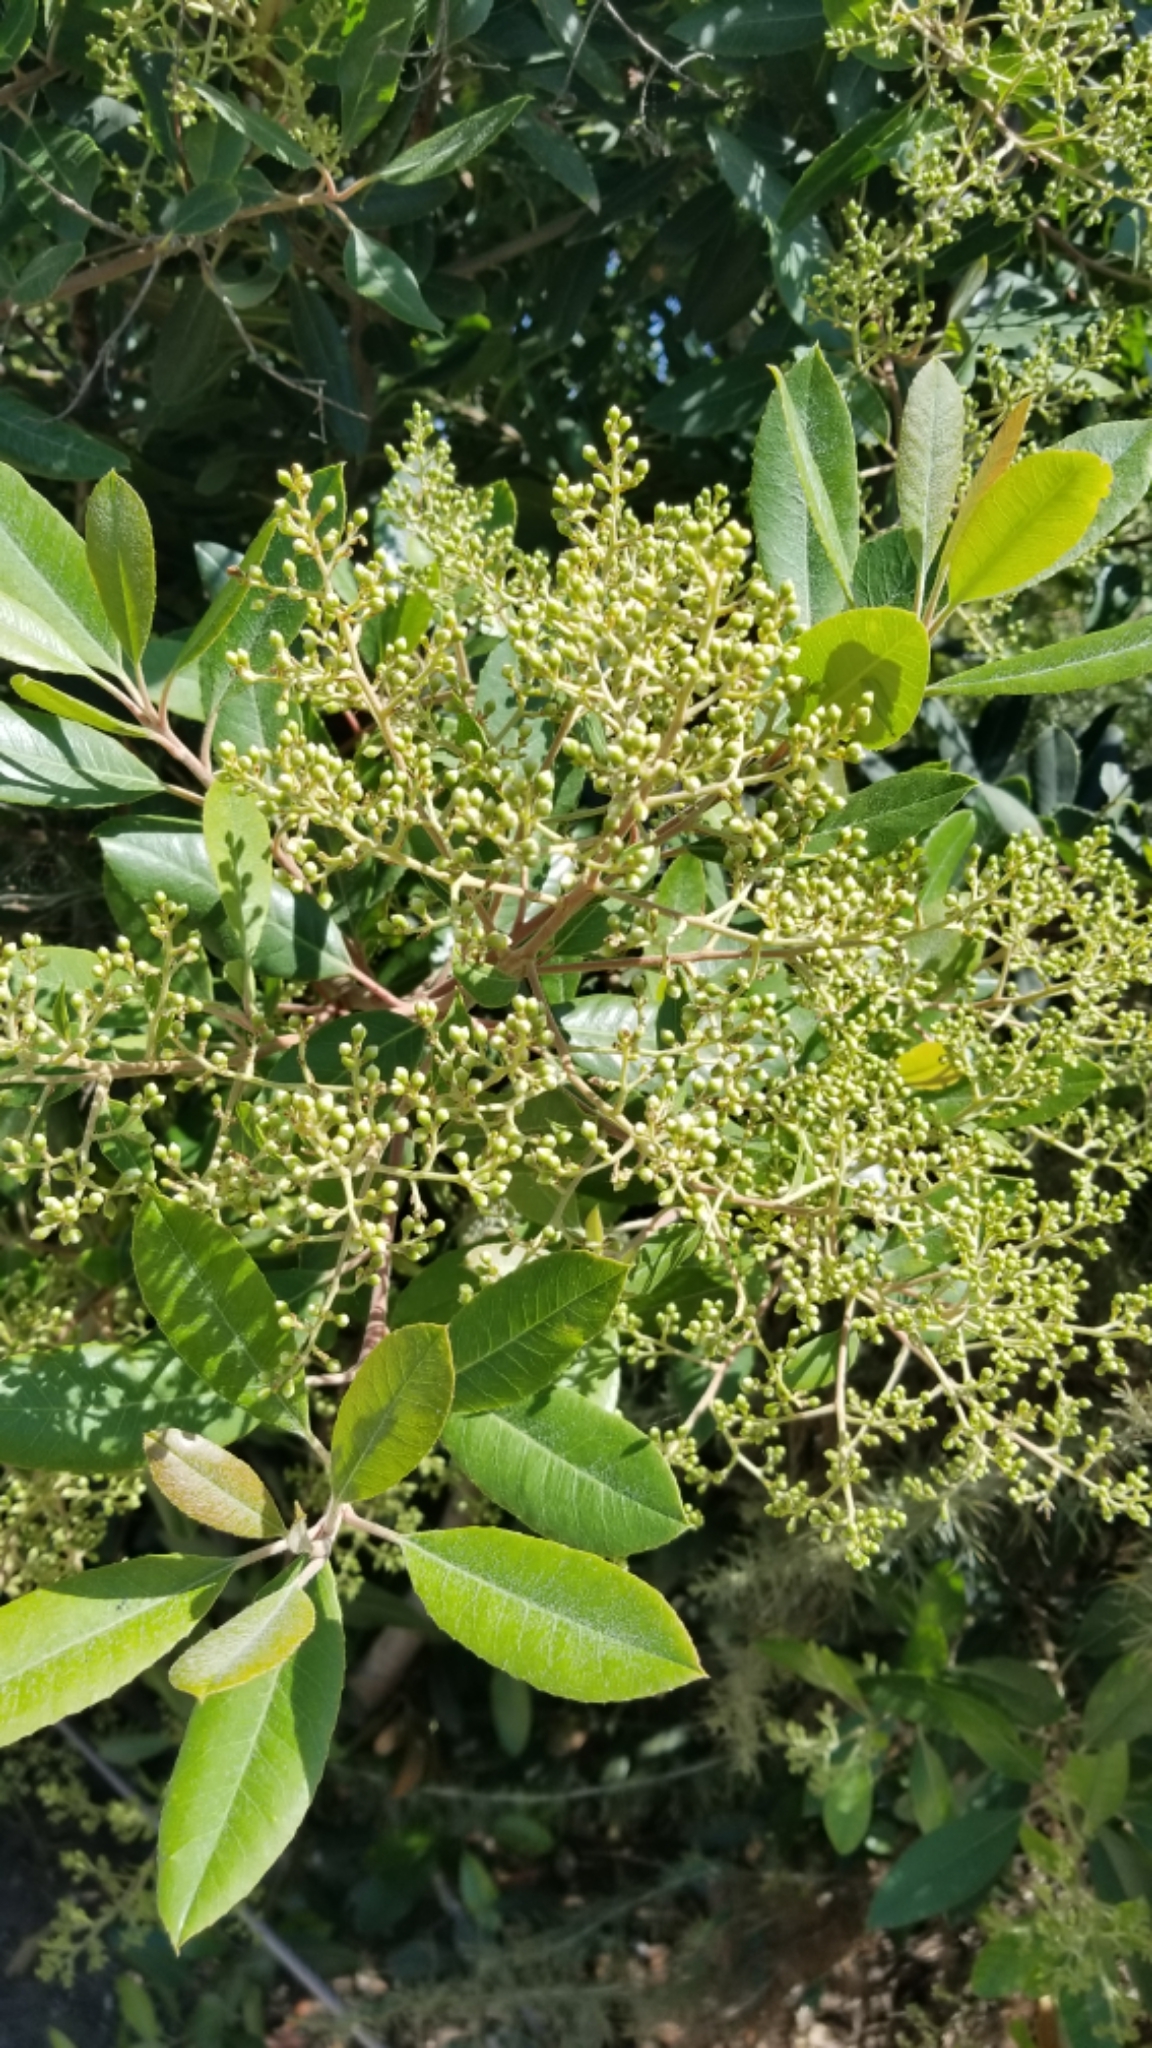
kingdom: Plantae
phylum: Tracheophyta
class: Magnoliopsida
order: Rosales
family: Rosaceae
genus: Heteromeles
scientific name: Heteromeles arbutifolia
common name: California-holly
